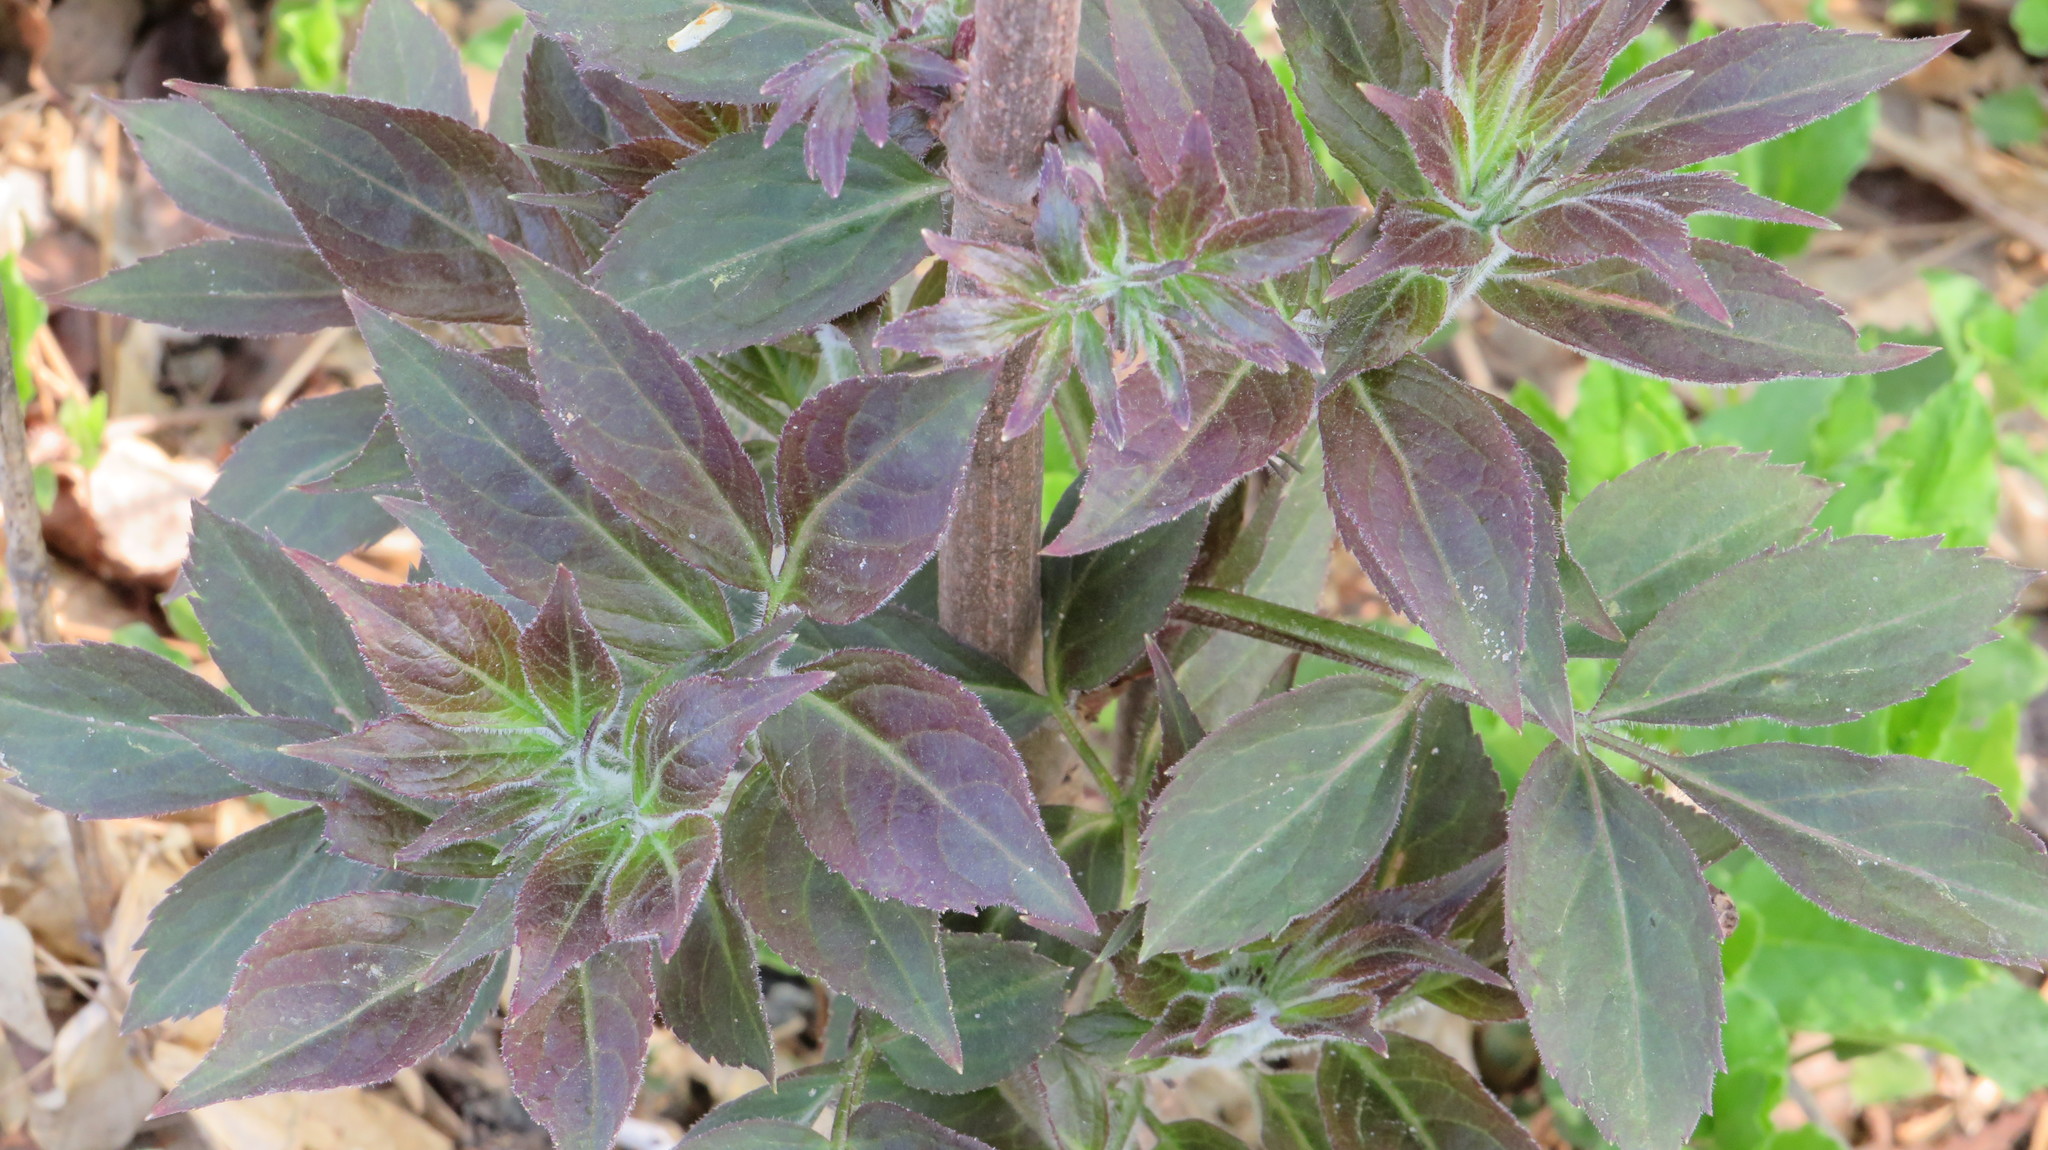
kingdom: Plantae
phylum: Tracheophyta
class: Magnoliopsida
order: Dipsacales
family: Viburnaceae
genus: Sambucus
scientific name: Sambucus sibirica
